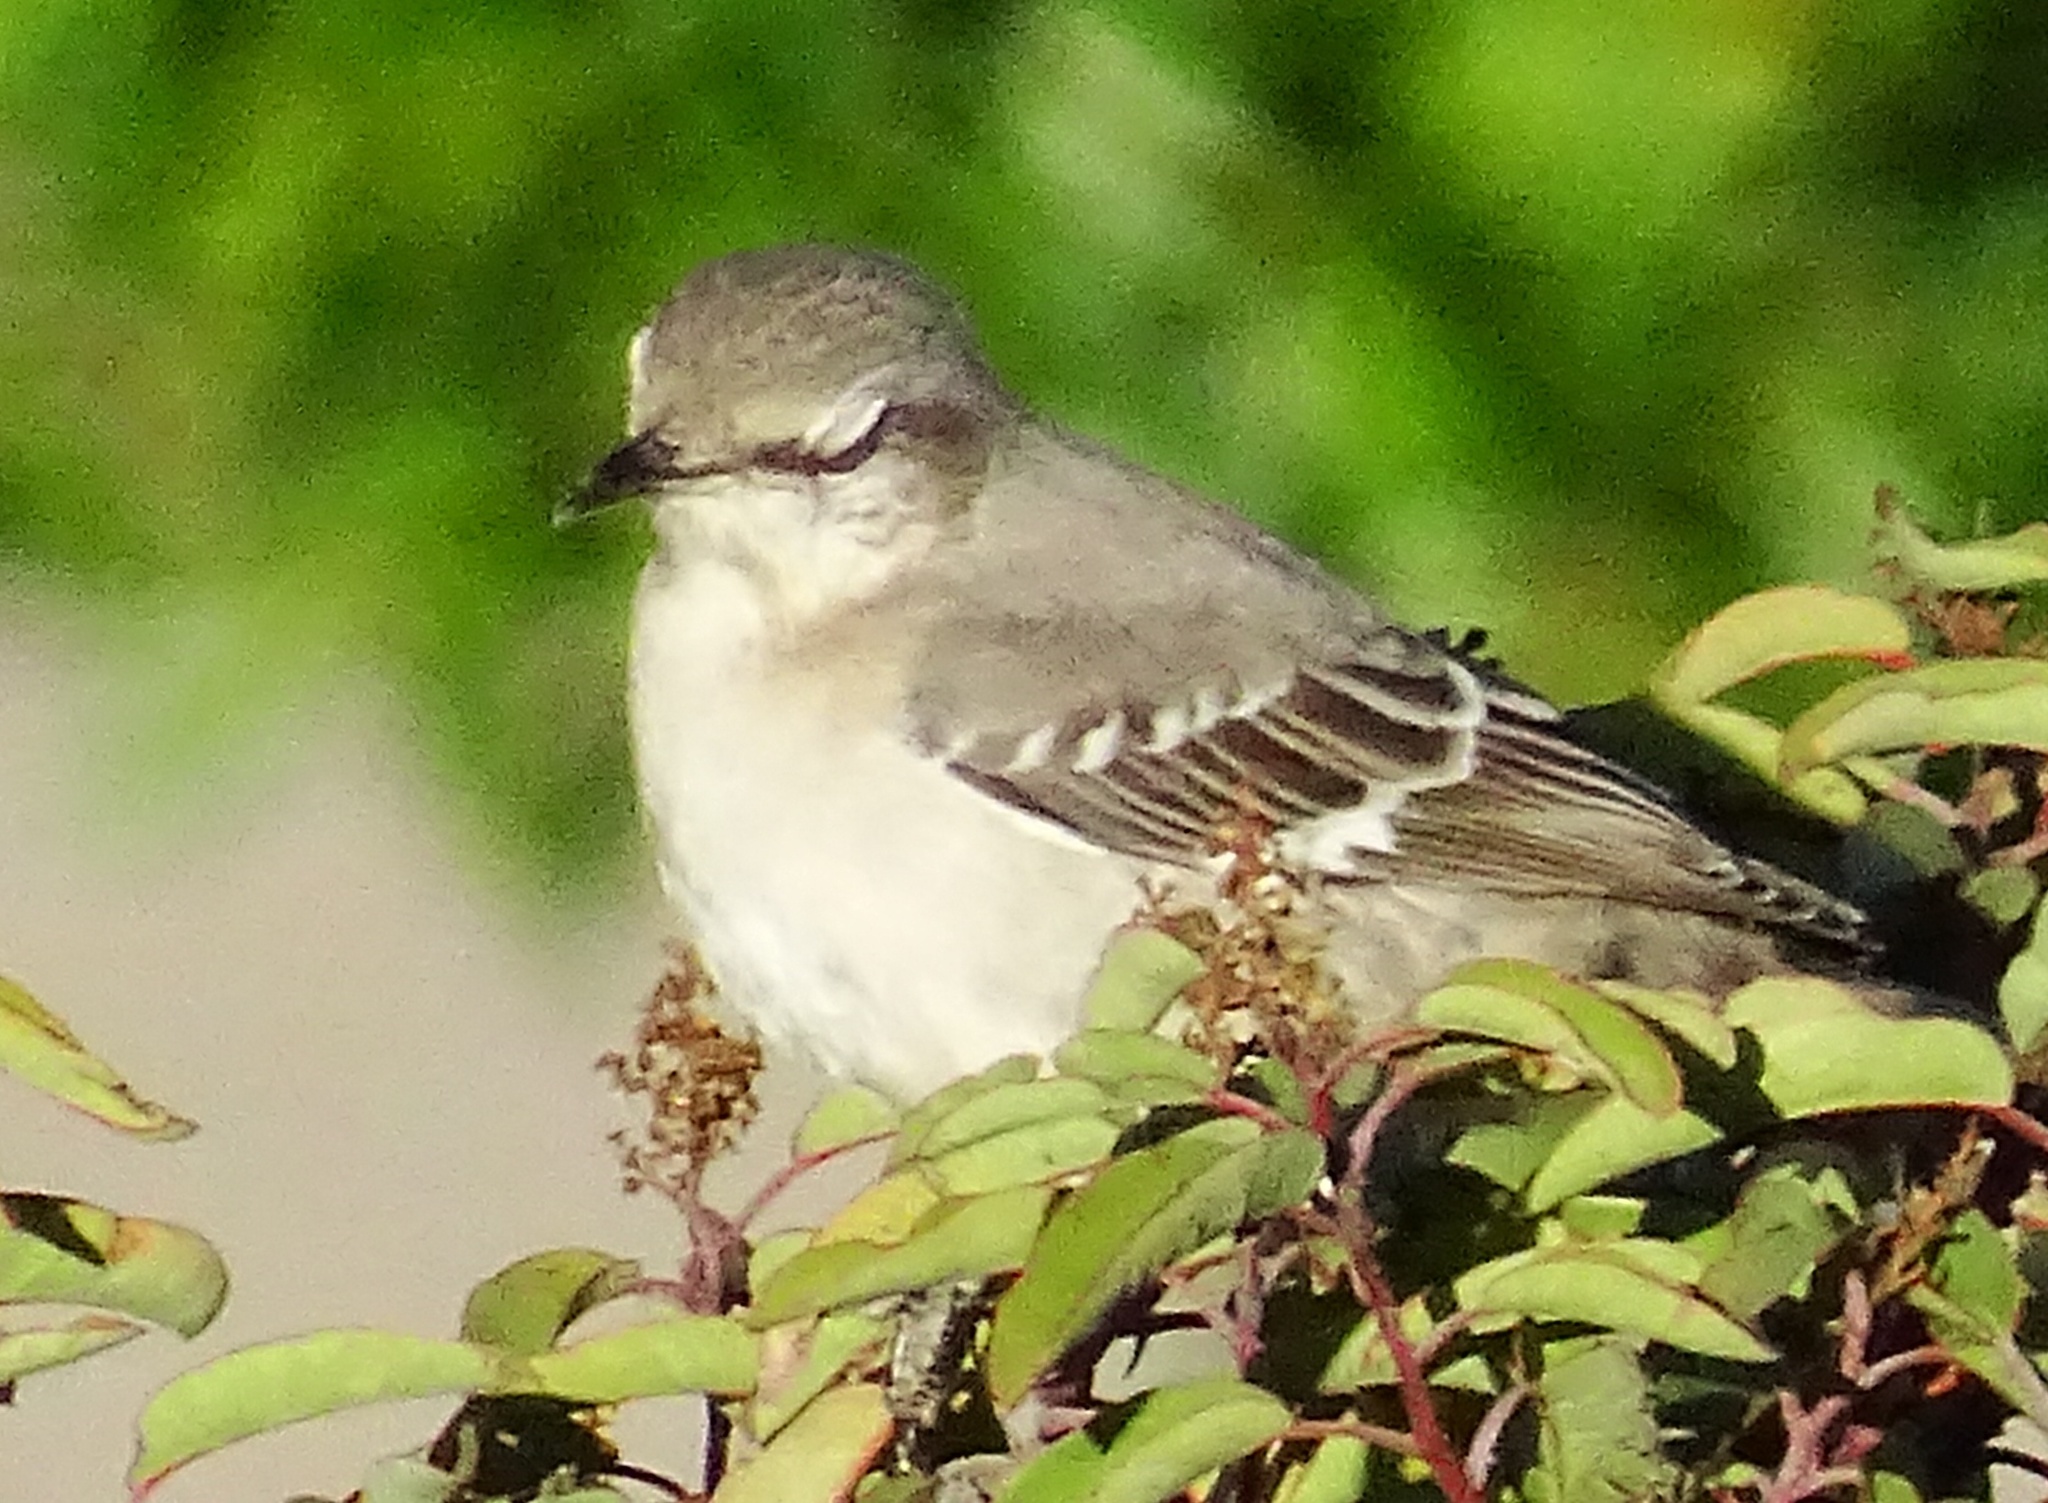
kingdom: Animalia
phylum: Chordata
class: Aves
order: Passeriformes
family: Mimidae
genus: Mimus
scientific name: Mimus polyglottos
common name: Northern mockingbird
